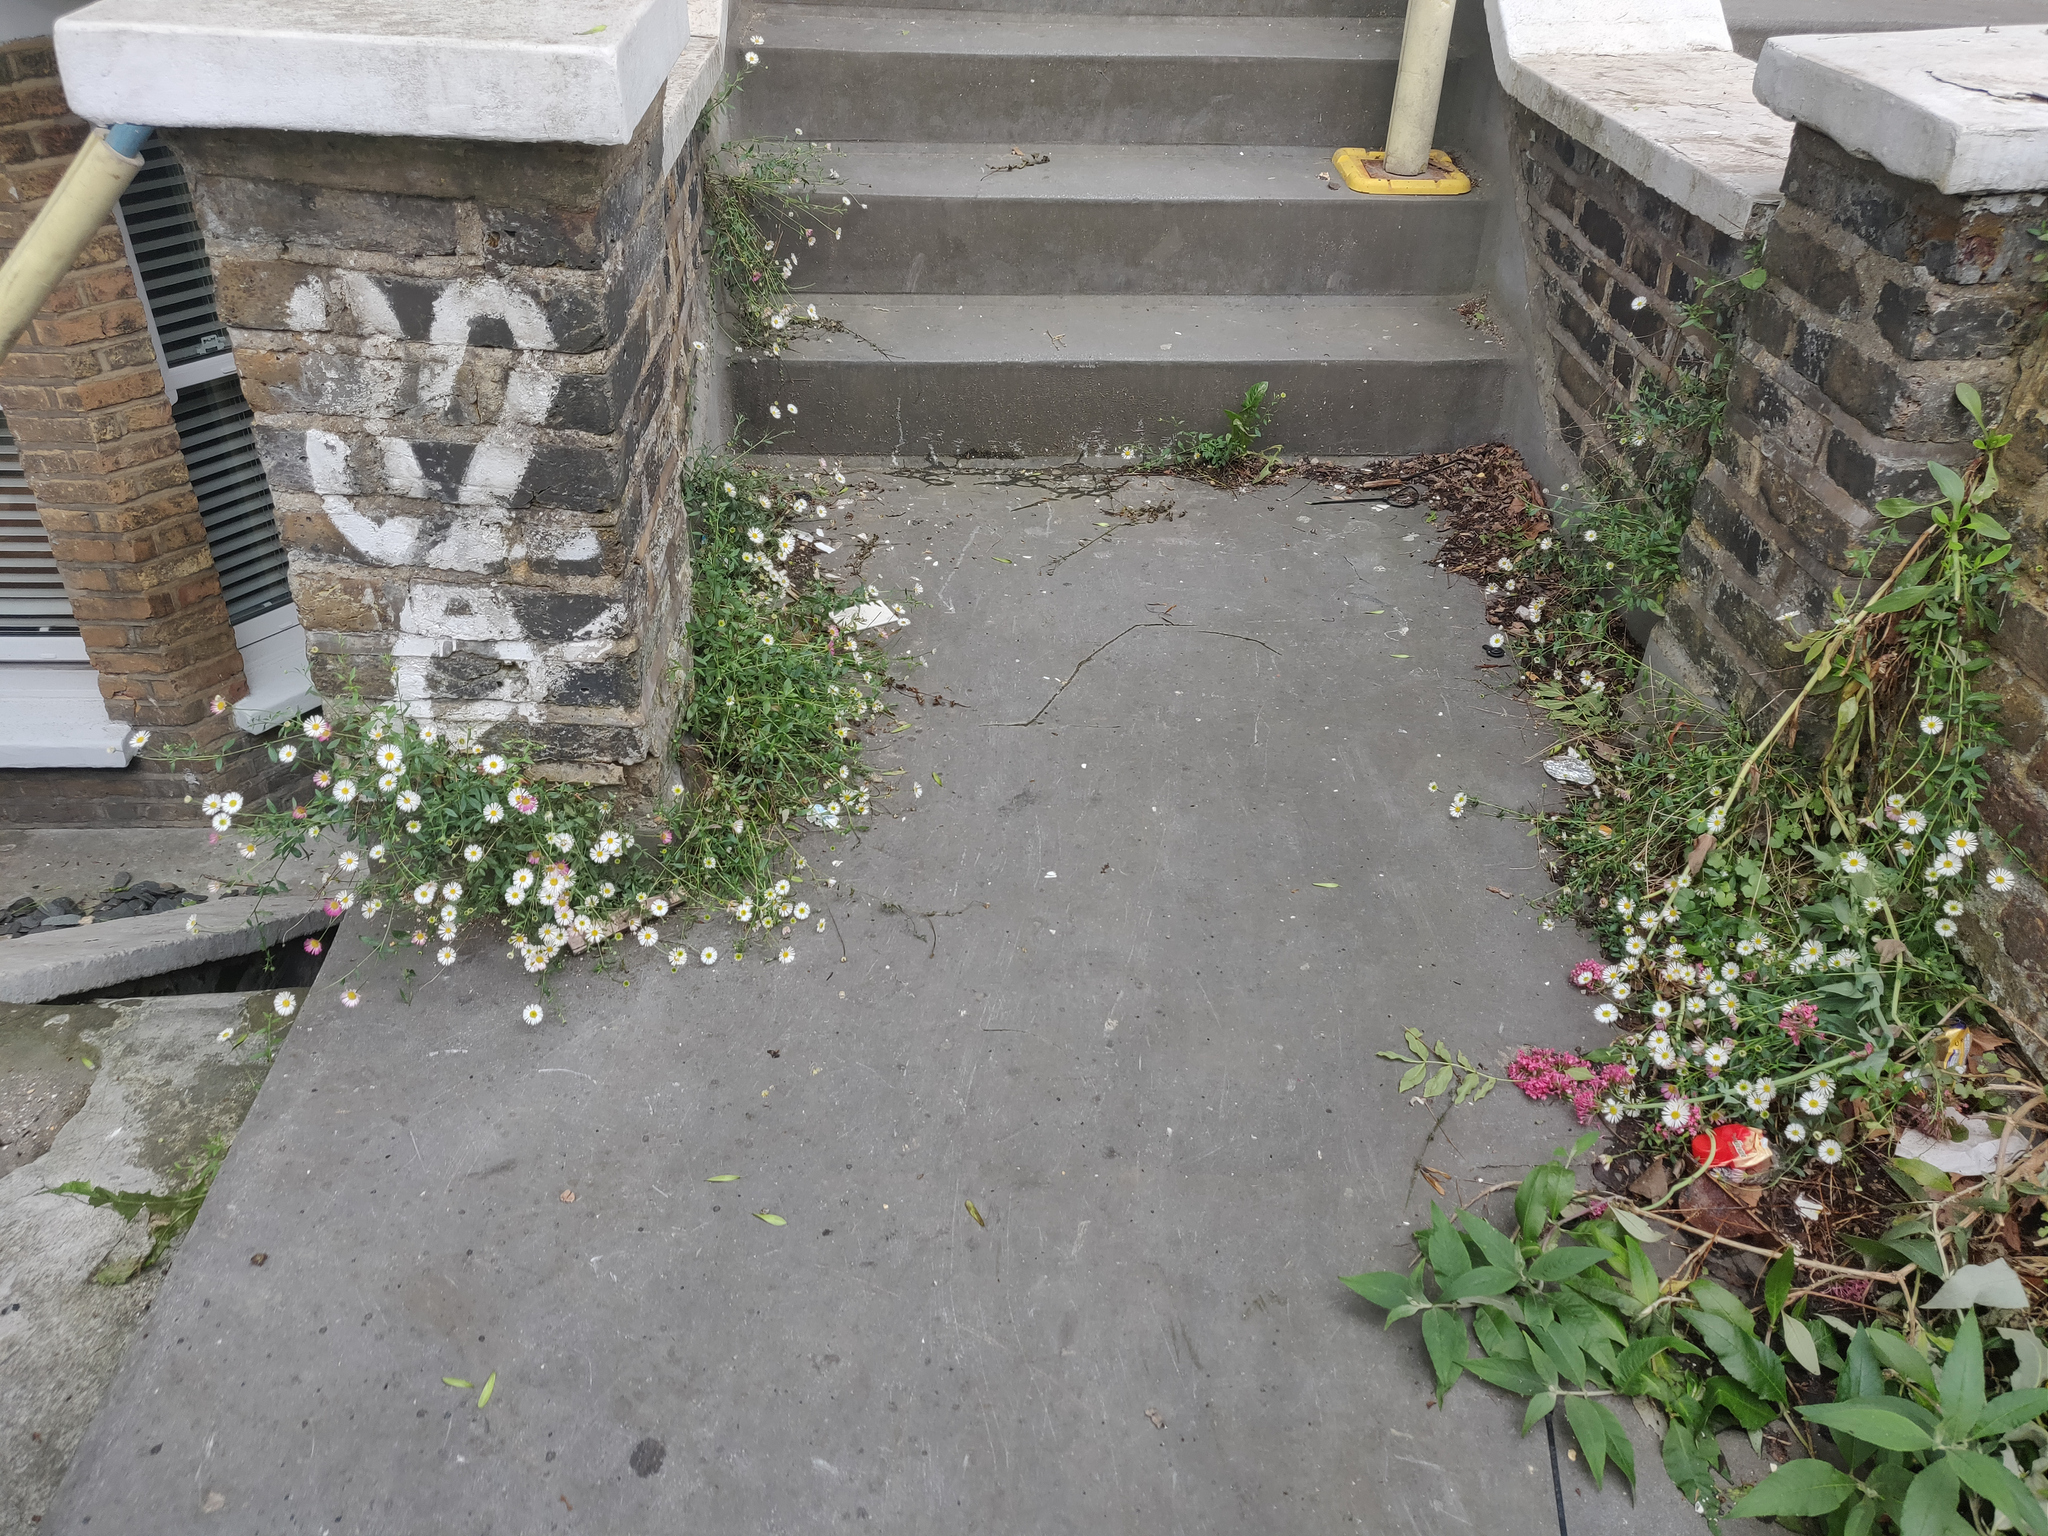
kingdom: Plantae
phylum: Tracheophyta
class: Magnoliopsida
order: Asterales
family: Asteraceae
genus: Erigeron
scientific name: Erigeron karvinskianus
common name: Mexican fleabane
